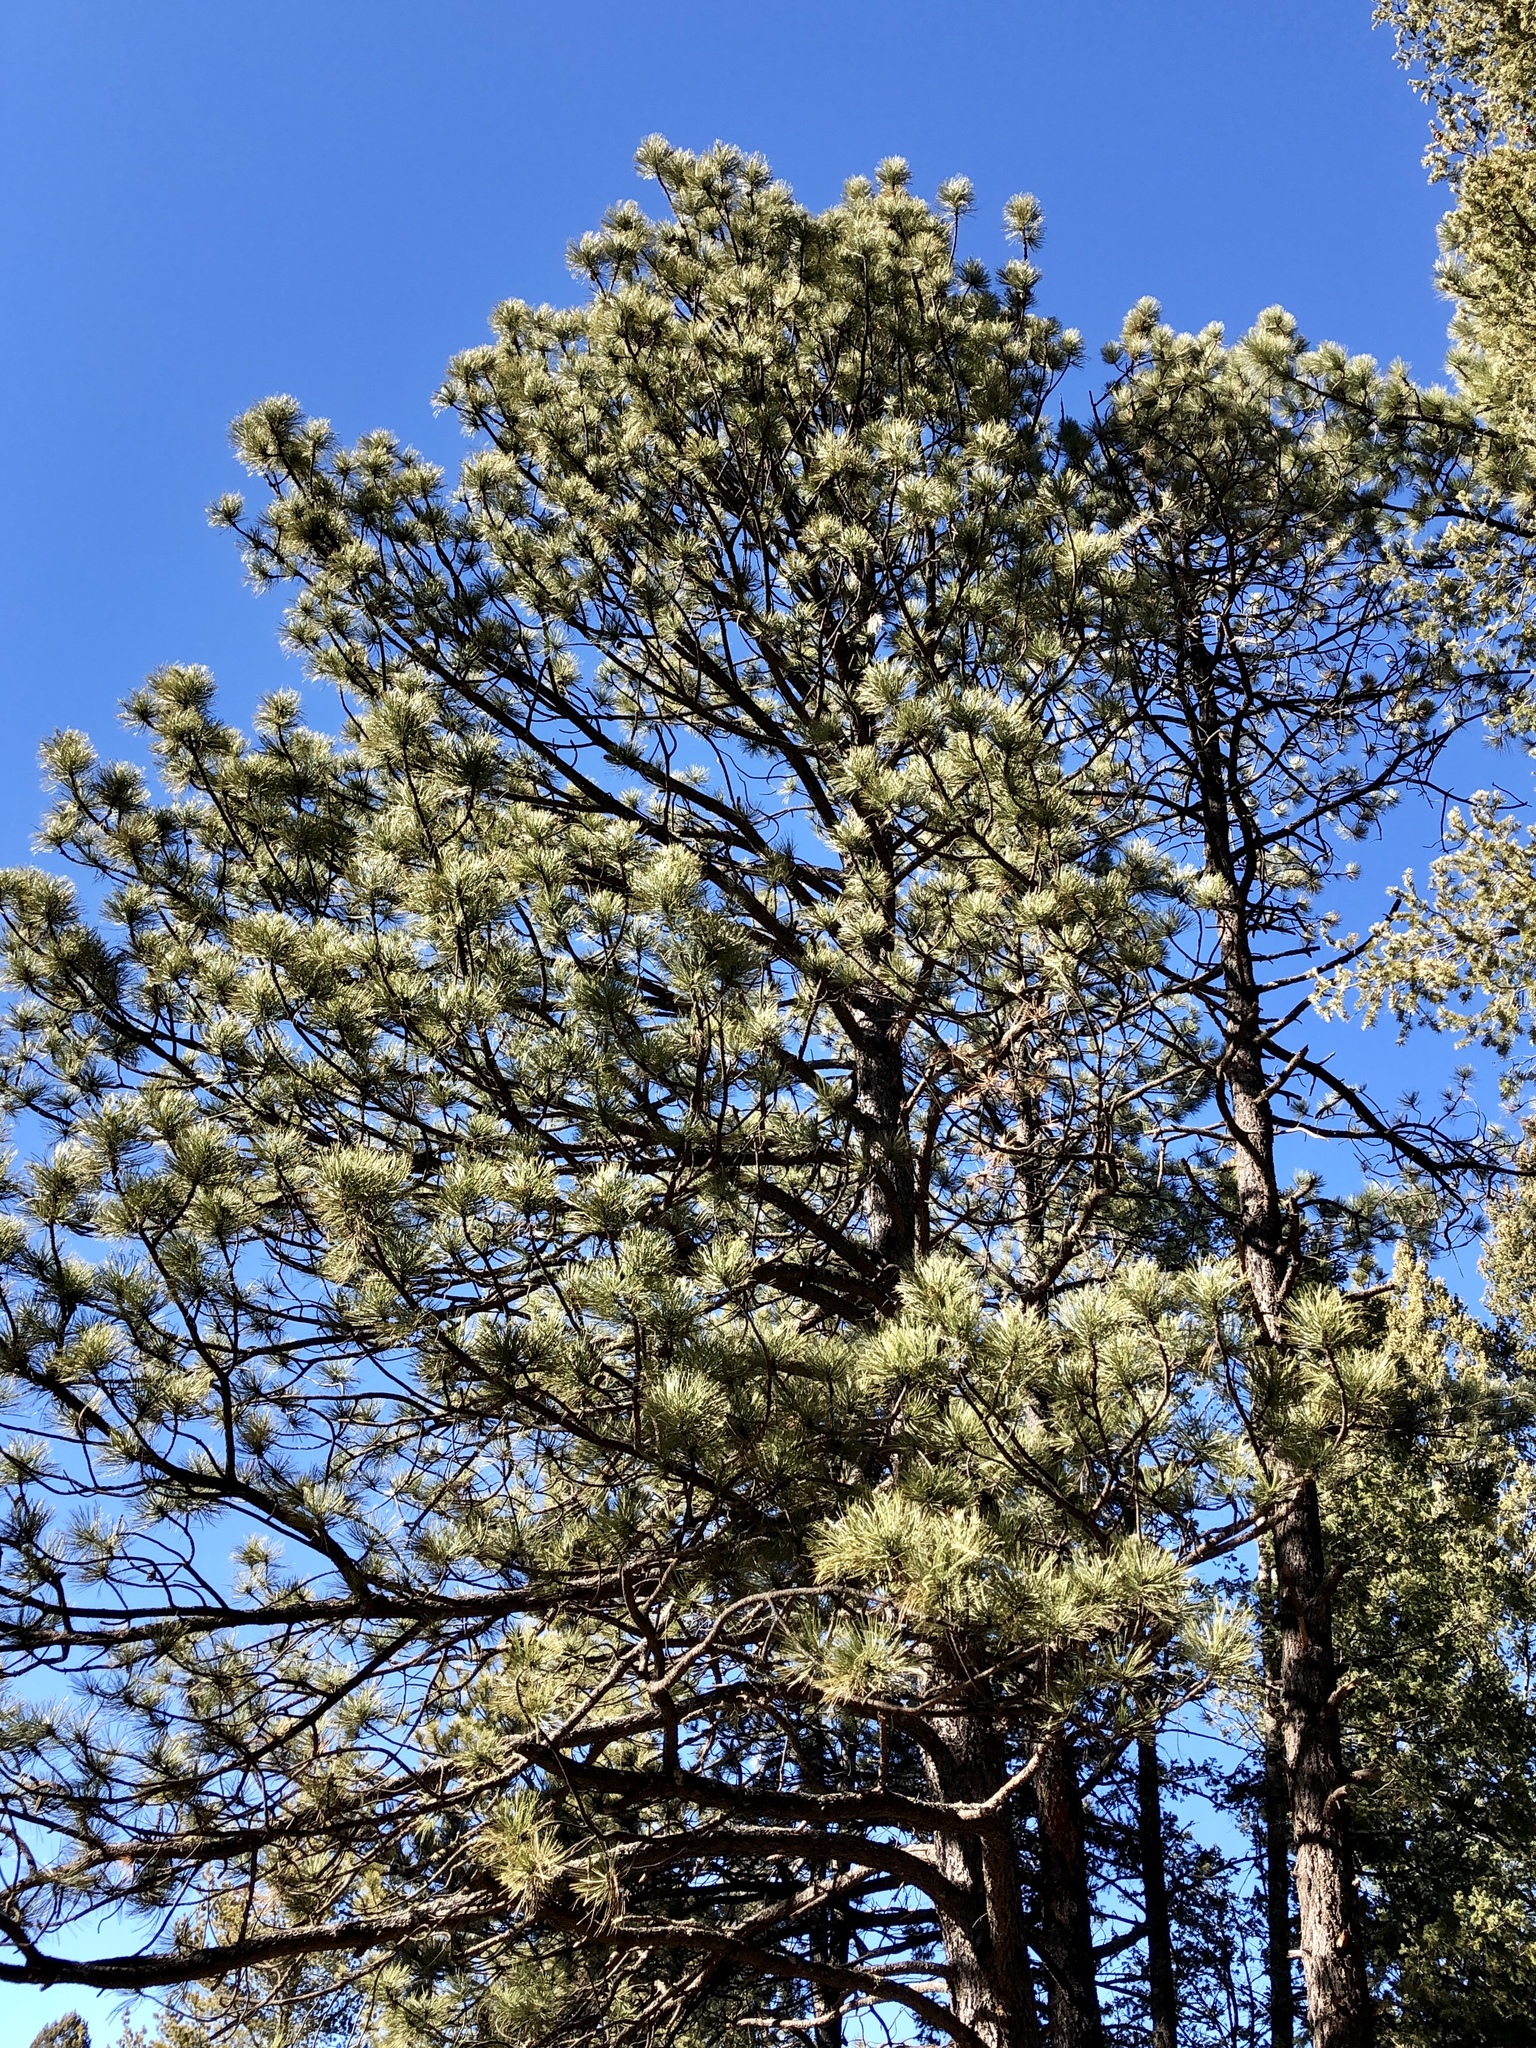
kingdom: Plantae
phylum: Tracheophyta
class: Pinopsida
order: Pinales
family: Pinaceae
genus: Pinus
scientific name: Pinus ponderosa
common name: Western yellow-pine
